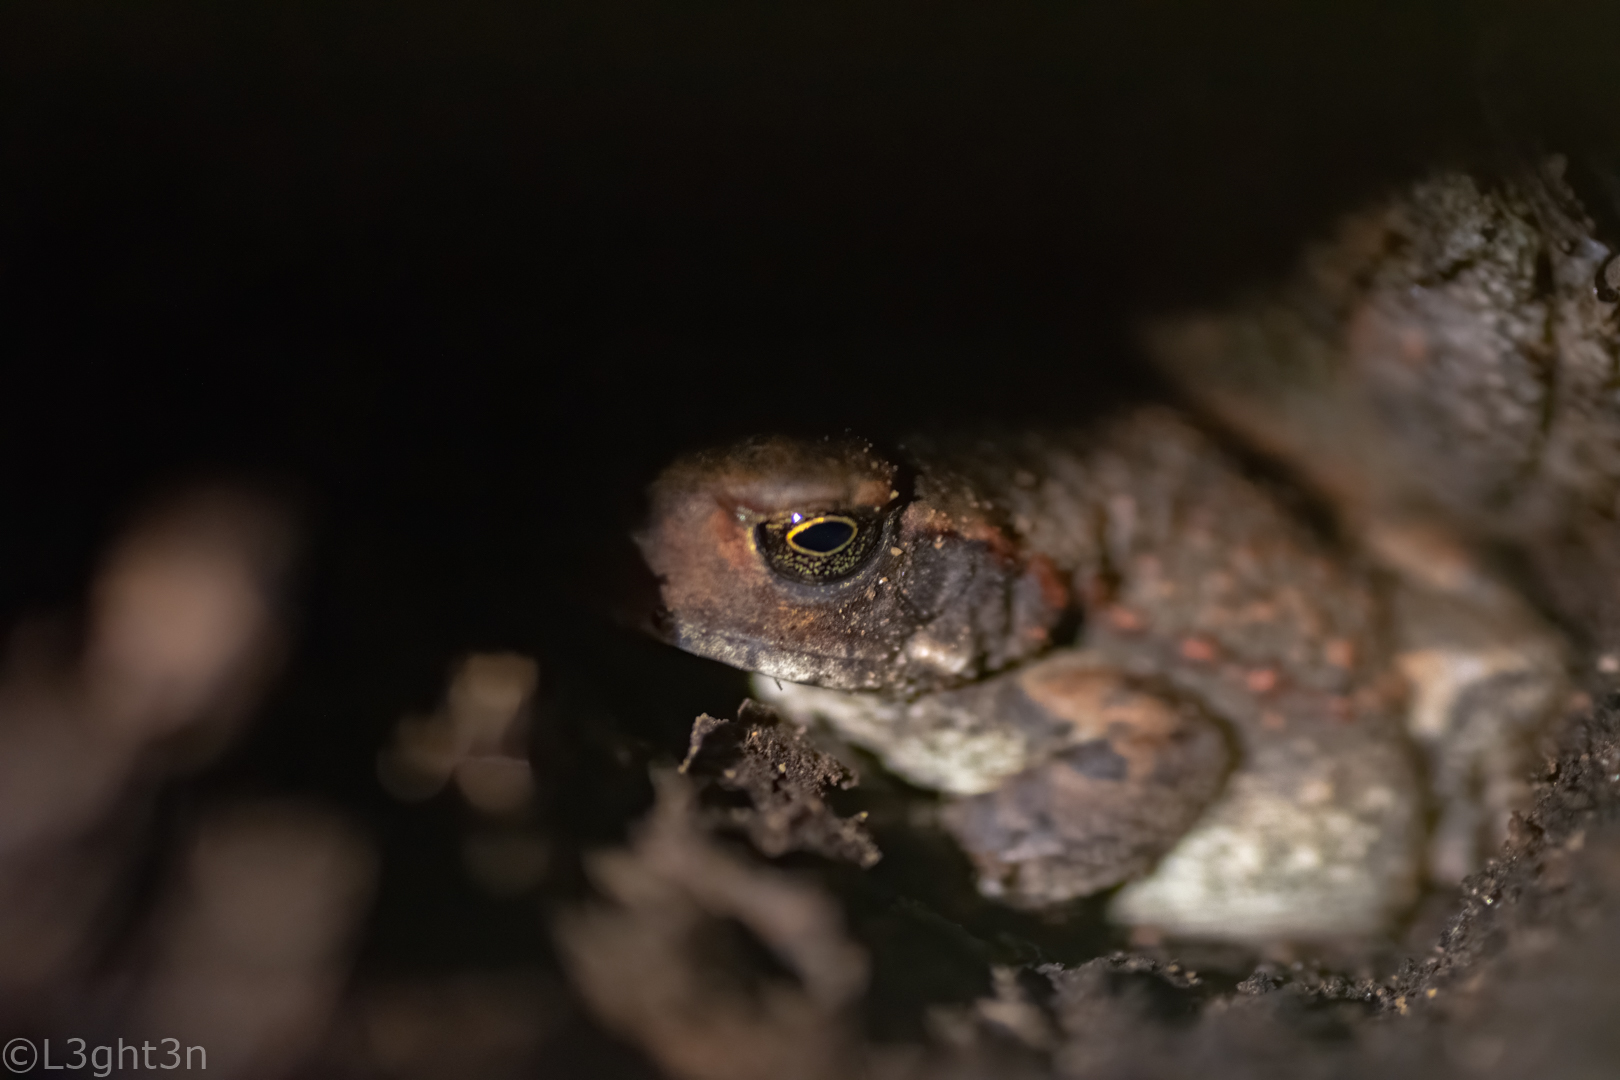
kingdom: Animalia
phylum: Chordata
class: Amphibia
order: Anura
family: Bufonidae
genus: Schismaderma
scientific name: Schismaderma carens
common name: African split-skin toad
